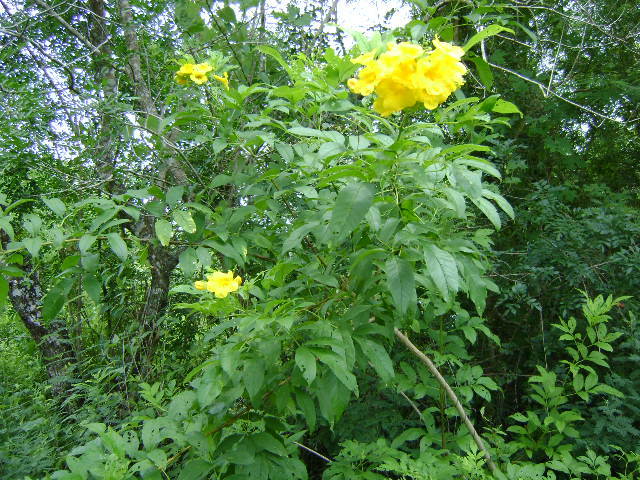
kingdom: Plantae
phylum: Tracheophyta
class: Magnoliopsida
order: Lamiales
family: Bignoniaceae
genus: Tecoma
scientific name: Tecoma stans
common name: Yellow trumpetbush
